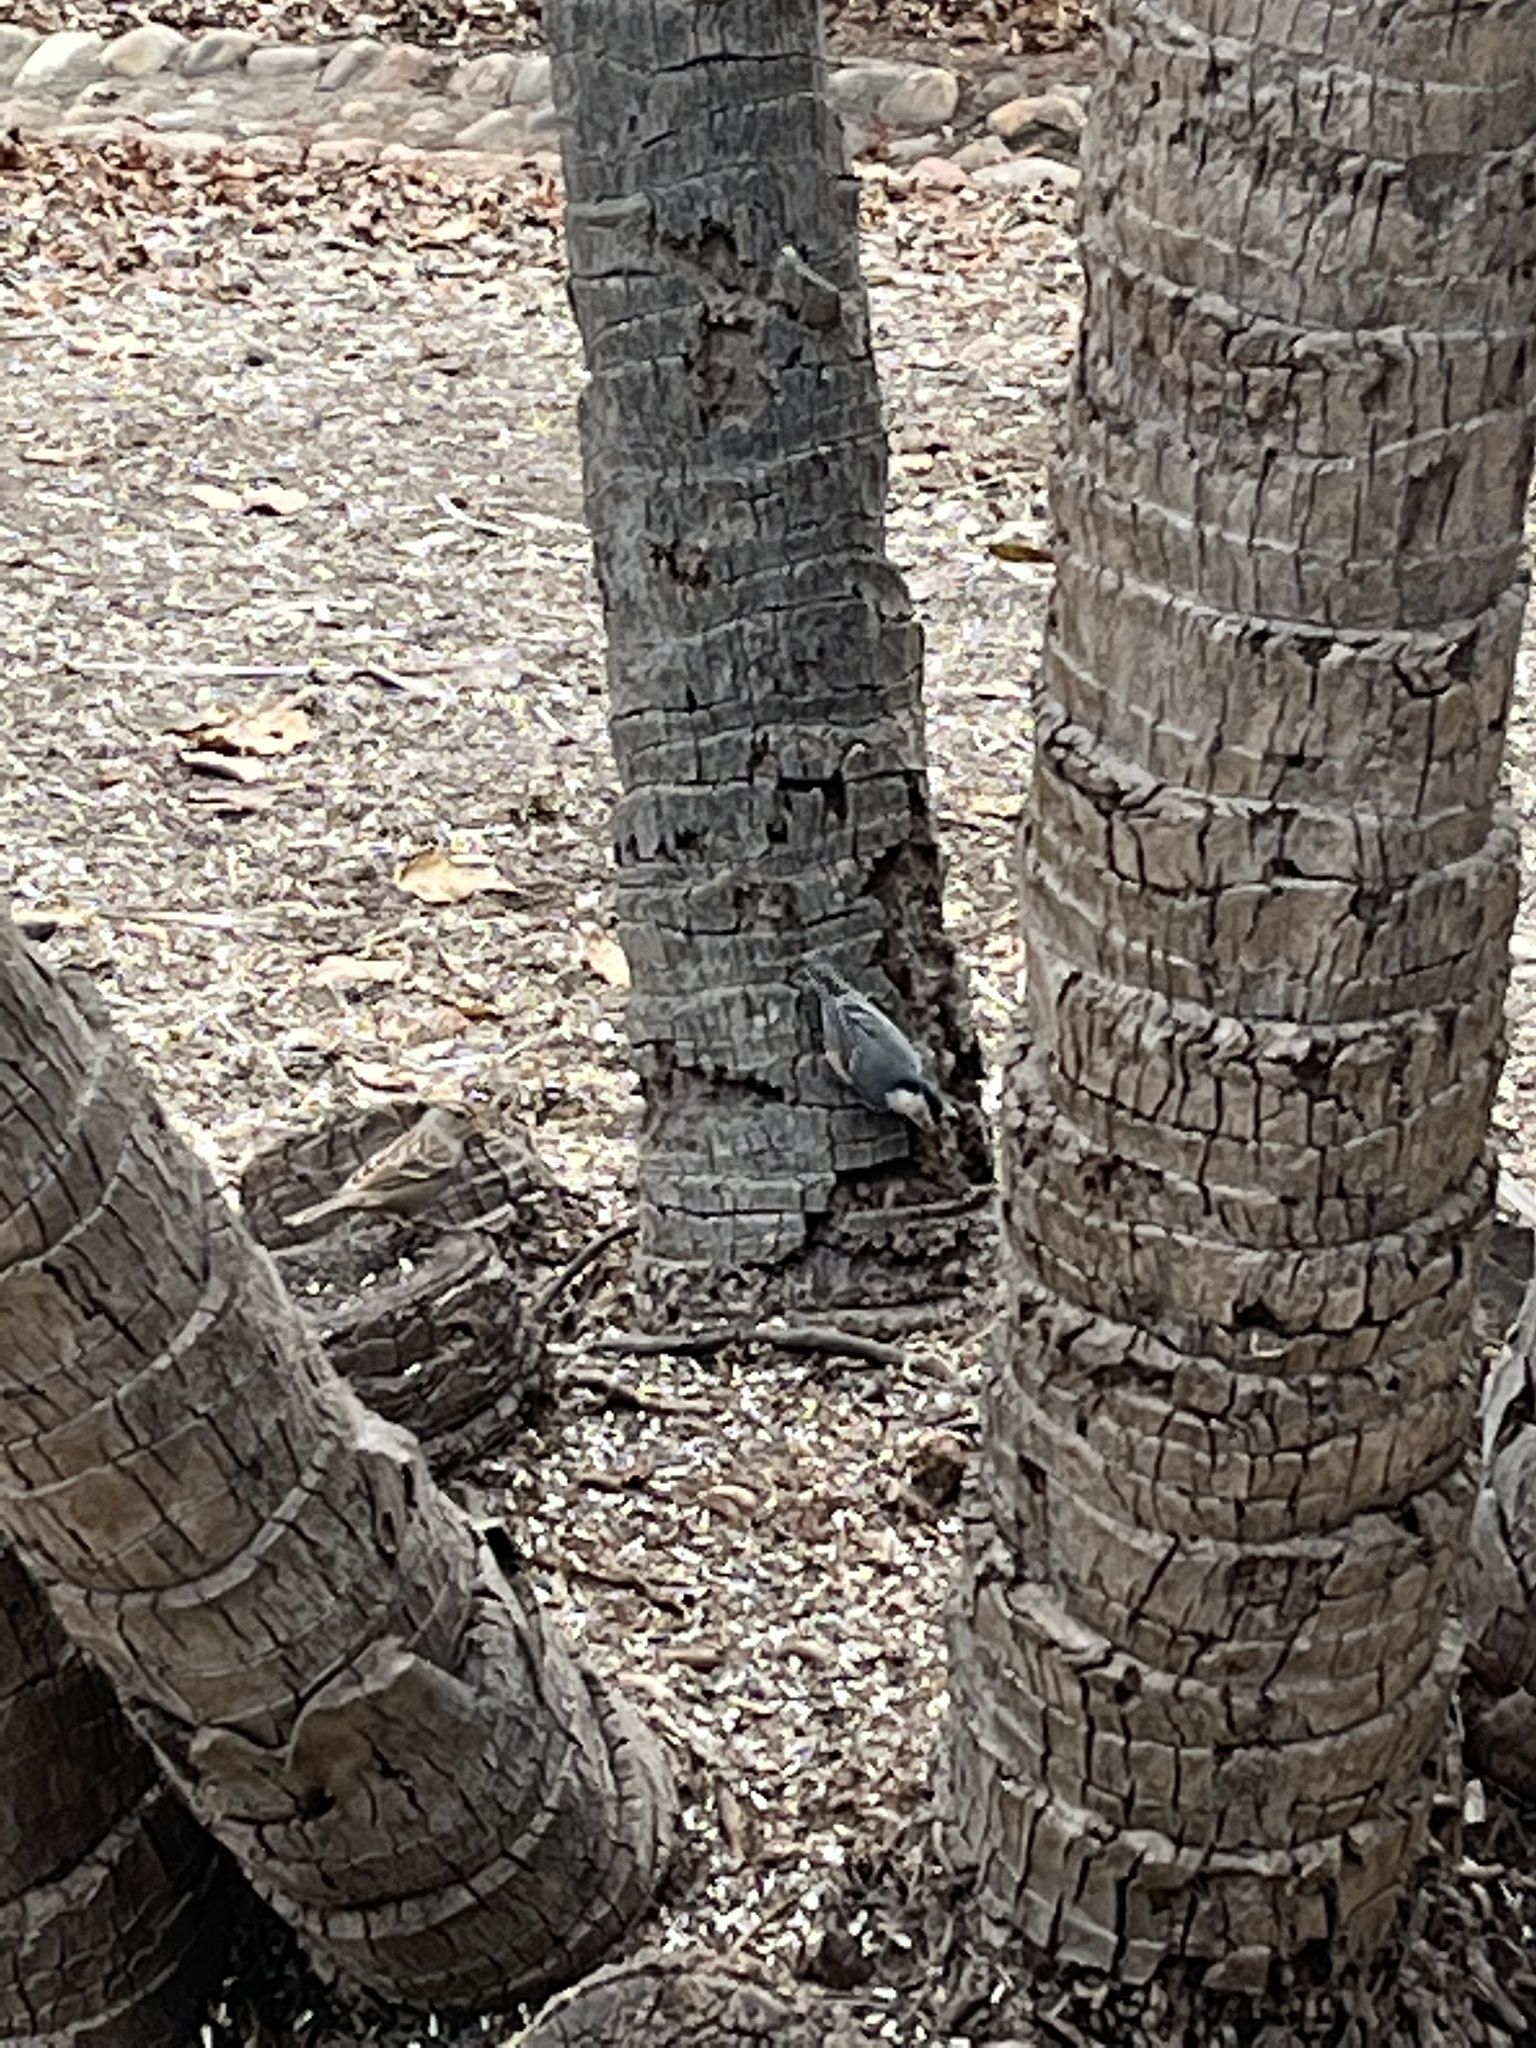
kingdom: Animalia
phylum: Chordata
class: Aves
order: Passeriformes
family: Sittidae
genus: Sitta
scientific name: Sitta carolinensis
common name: White-breasted nuthatch
